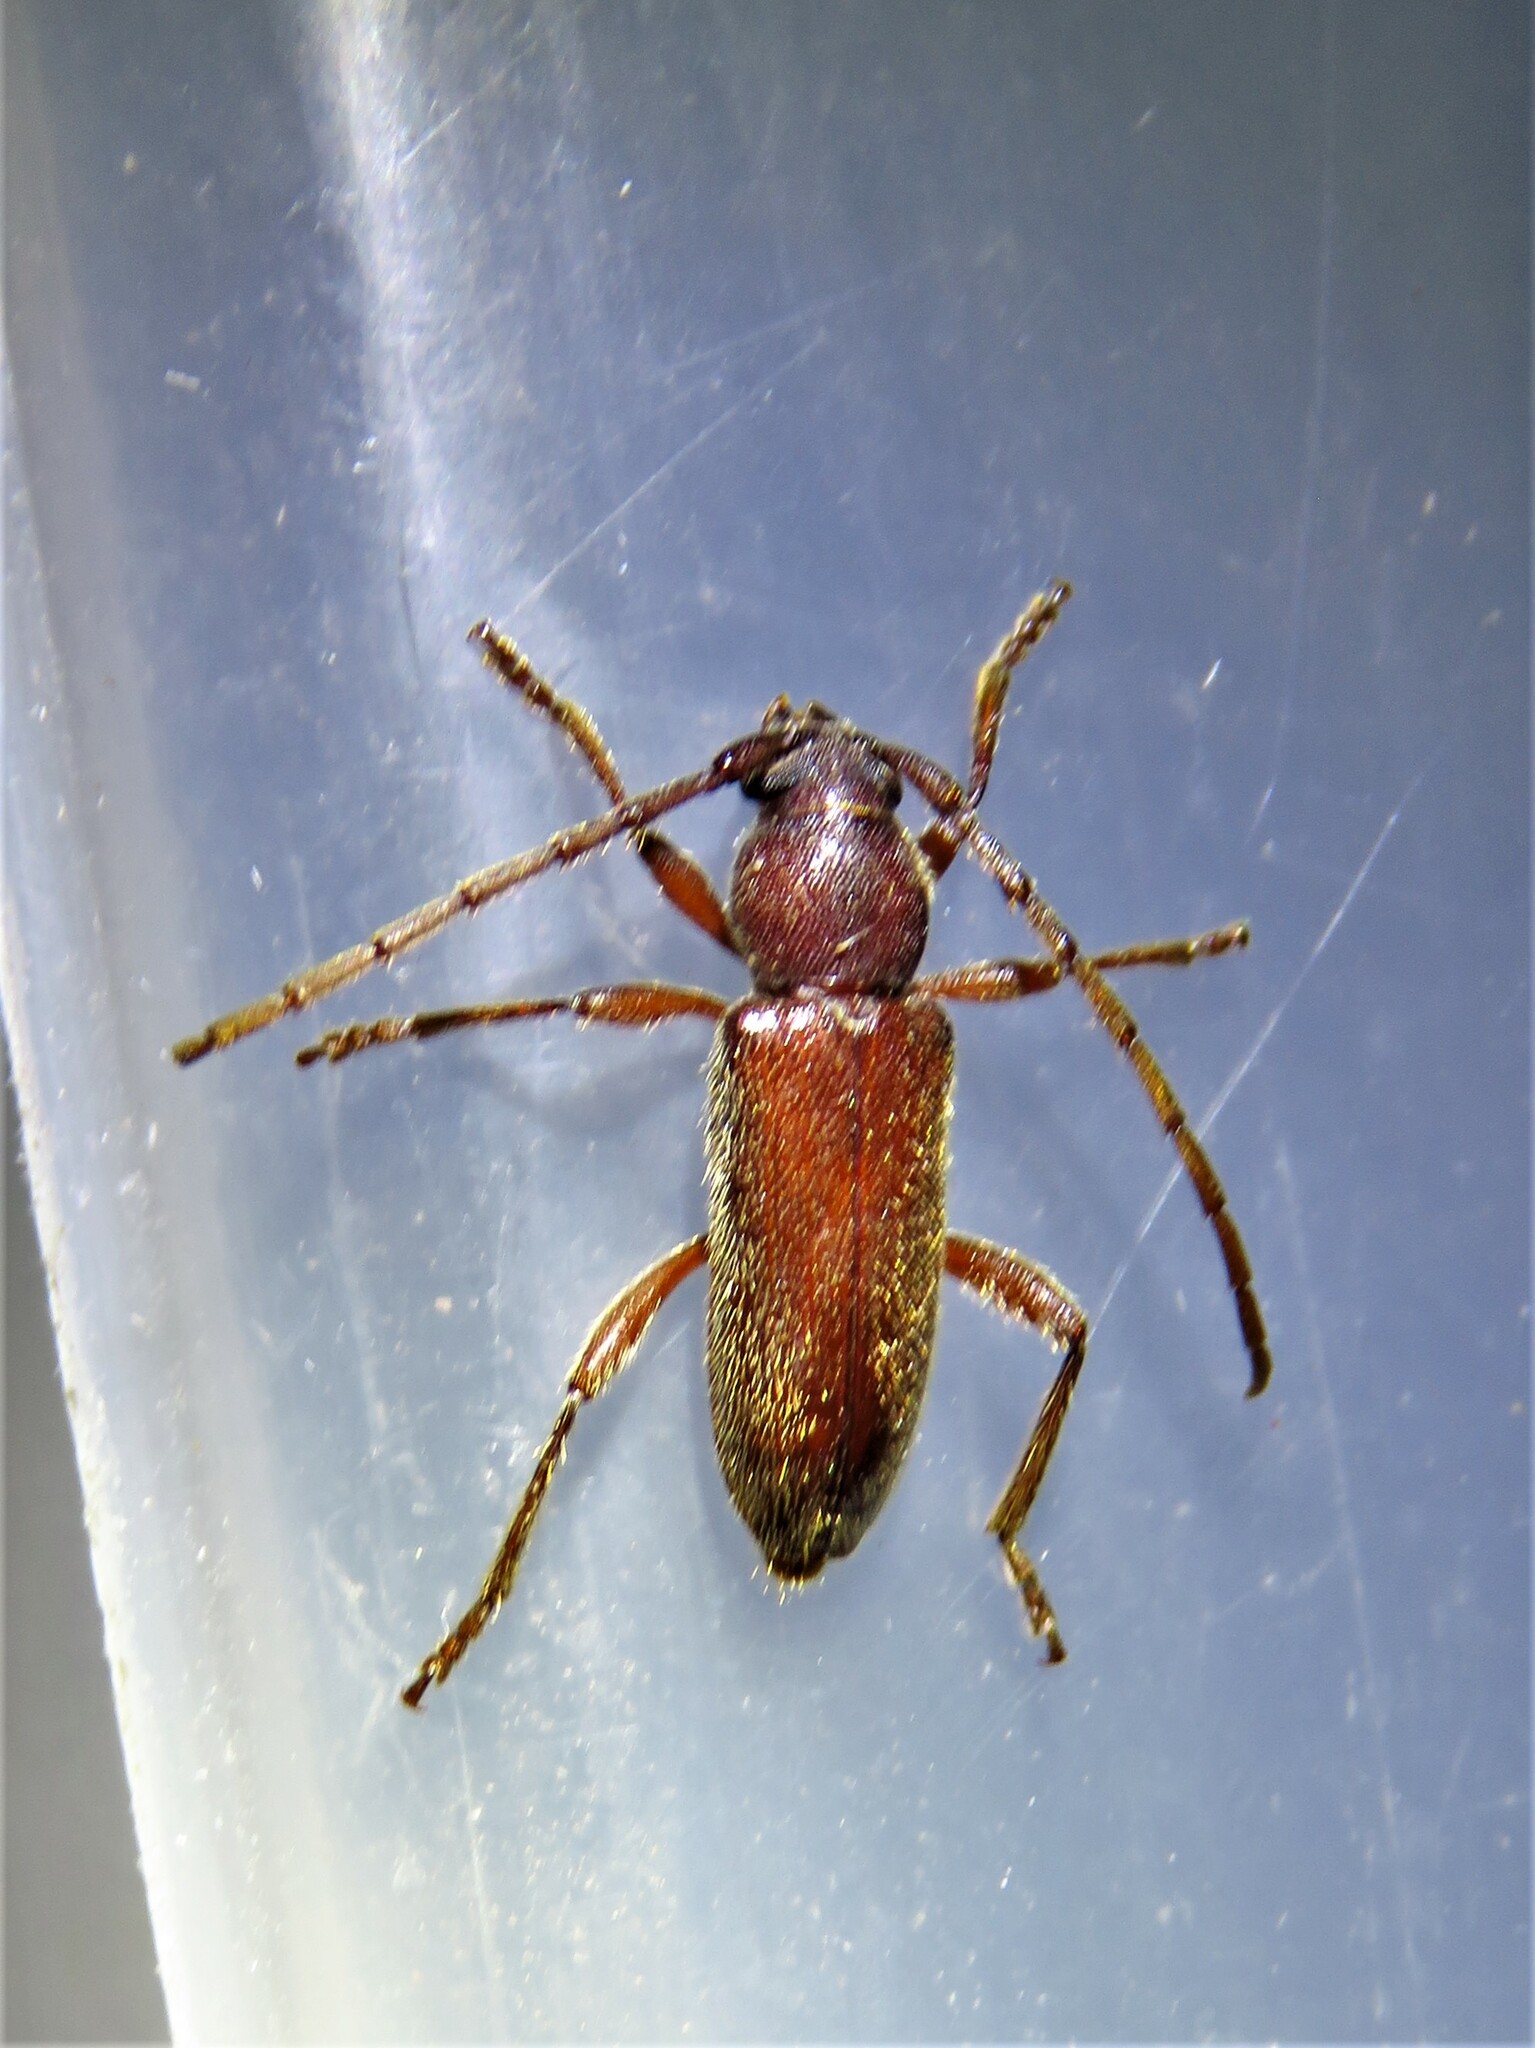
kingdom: Animalia
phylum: Arthropoda
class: Insecta
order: Coleoptera
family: Cerambycidae
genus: Anelaphus
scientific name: Anelaphus moestus
